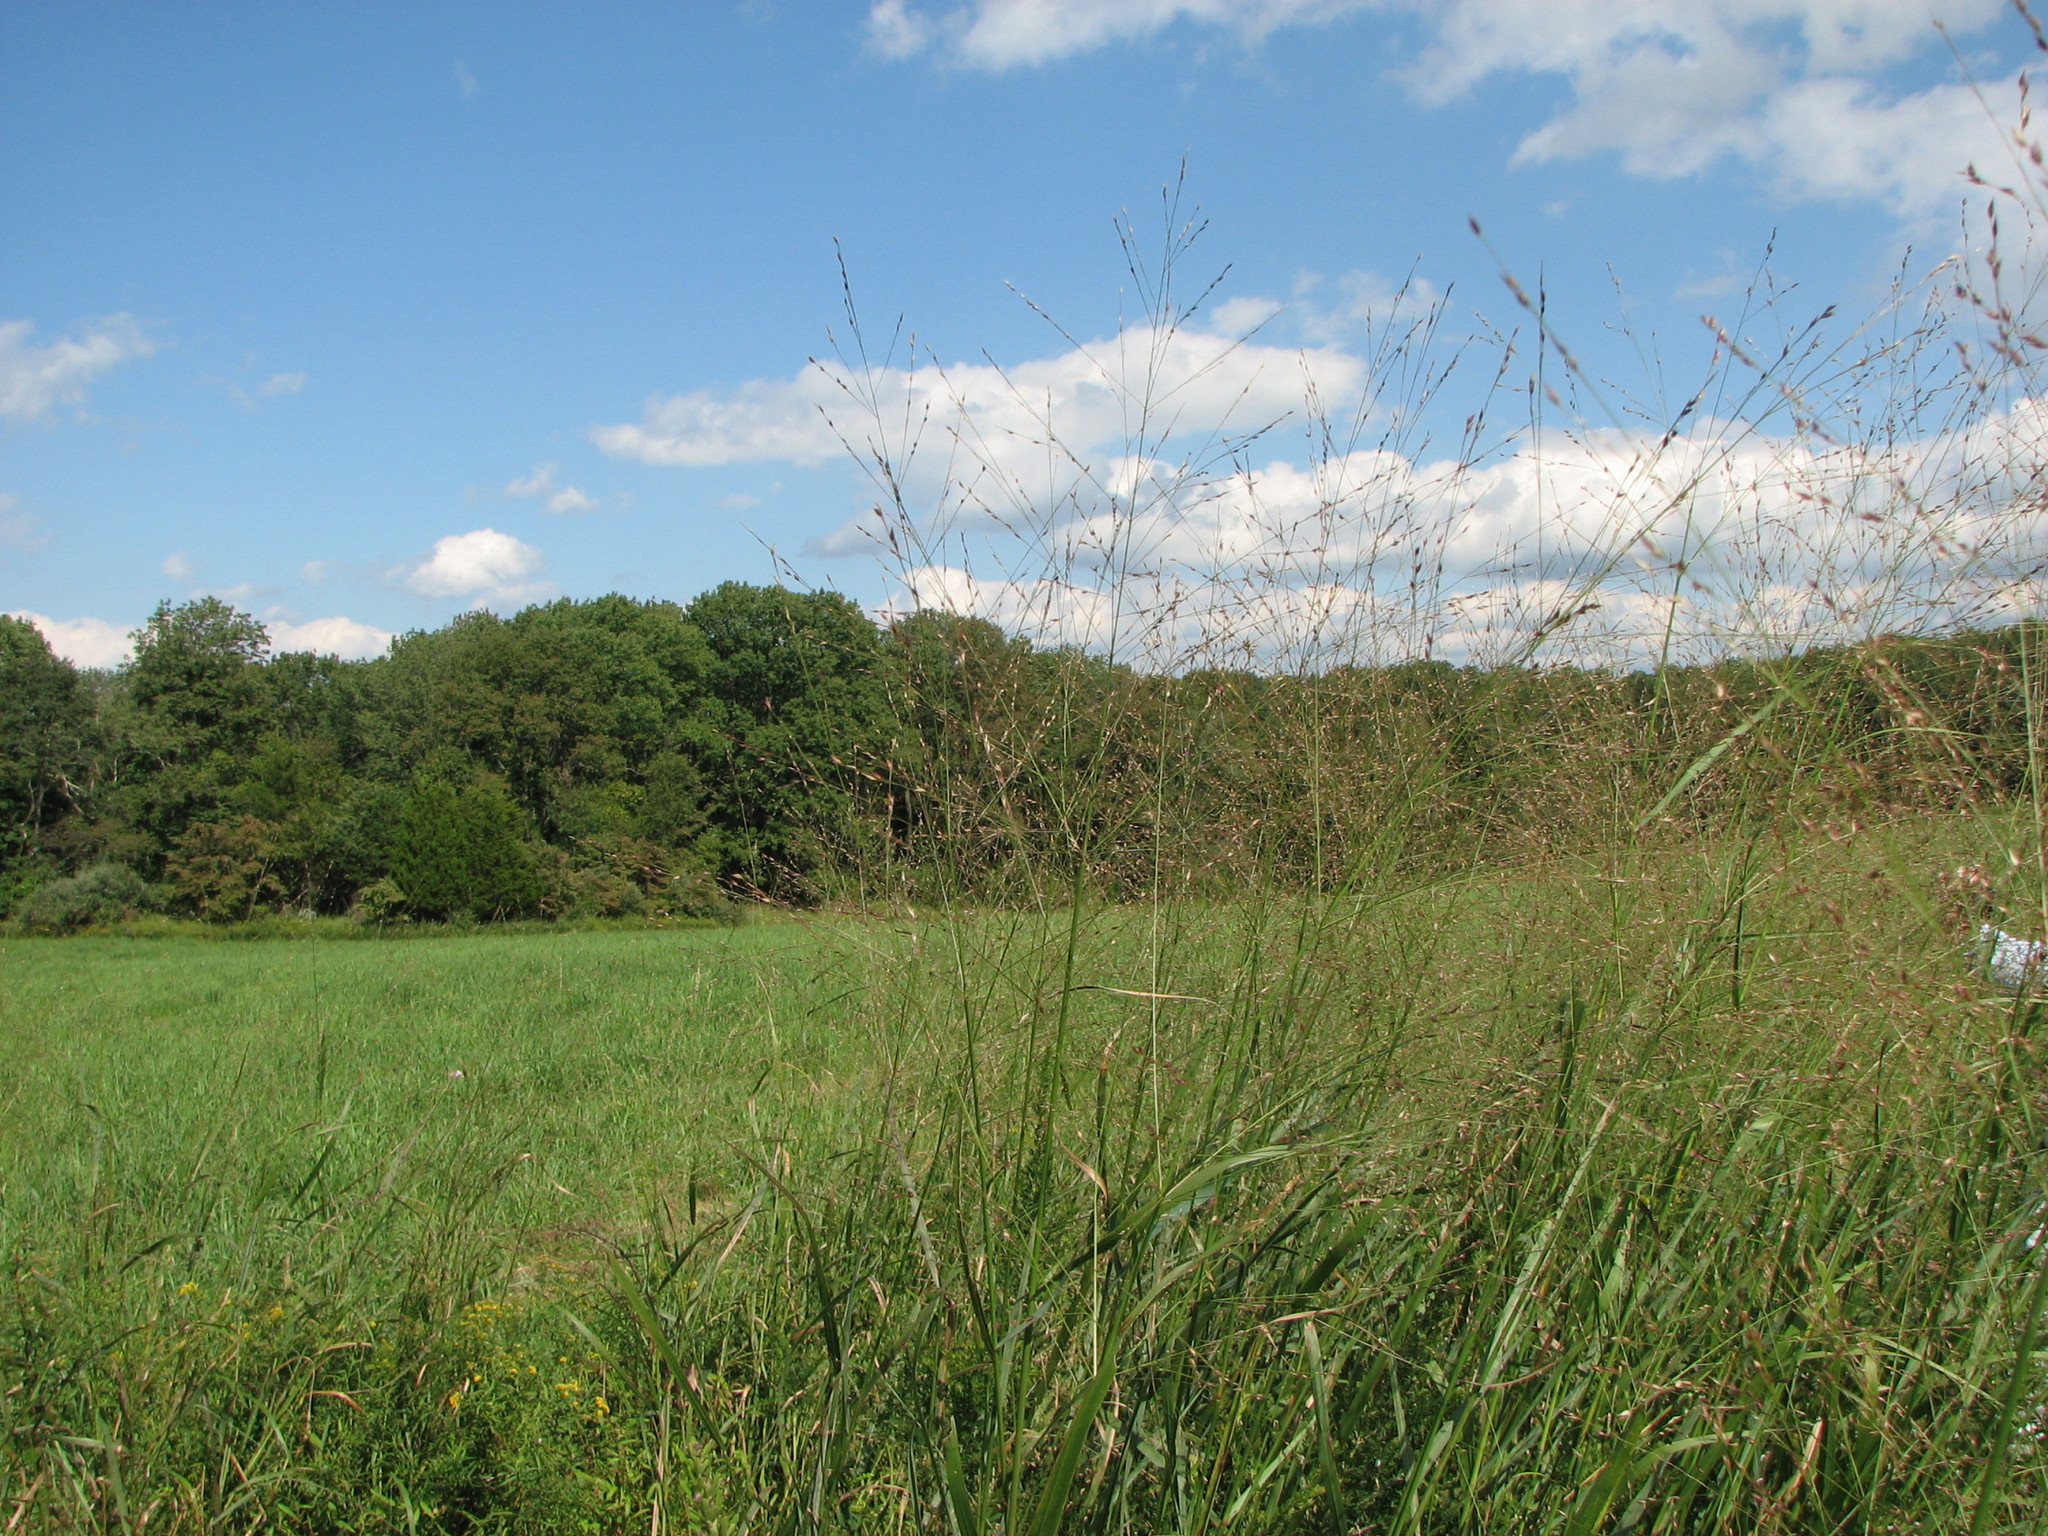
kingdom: Plantae
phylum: Tracheophyta
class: Liliopsida
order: Poales
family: Poaceae
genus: Panicum
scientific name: Panicum virgatum
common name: Switchgrass
